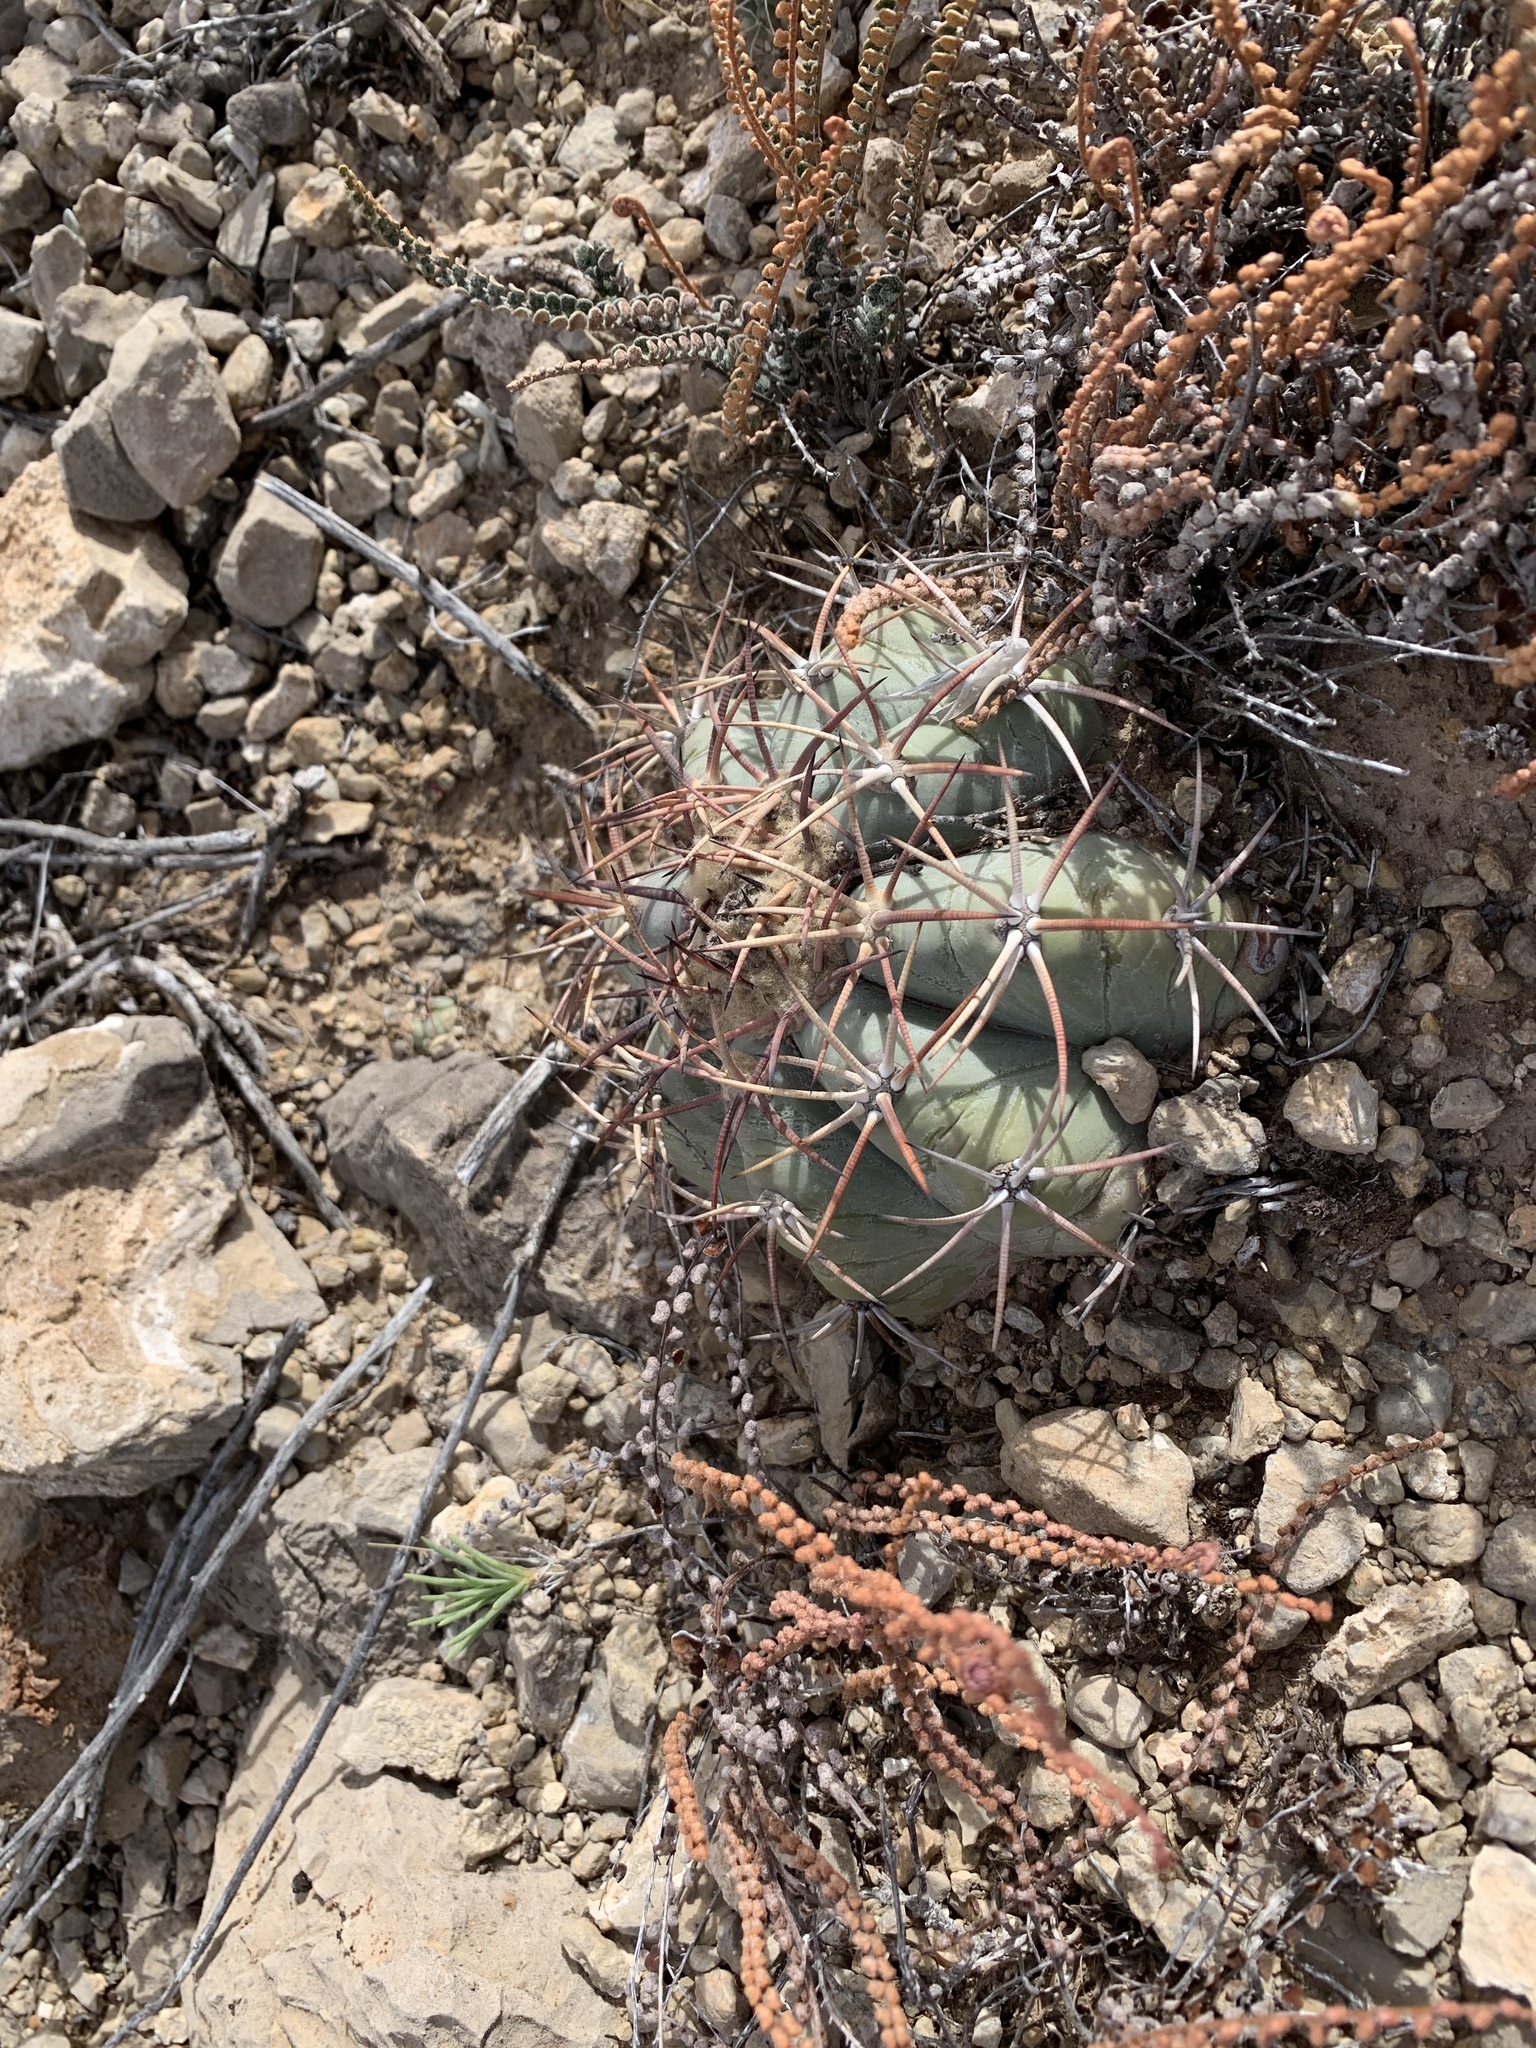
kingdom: Plantae
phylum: Tracheophyta
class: Magnoliopsida
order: Caryophyllales
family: Cactaceae
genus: Echinocactus
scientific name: Echinocactus horizonthalonius
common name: Devilshead
